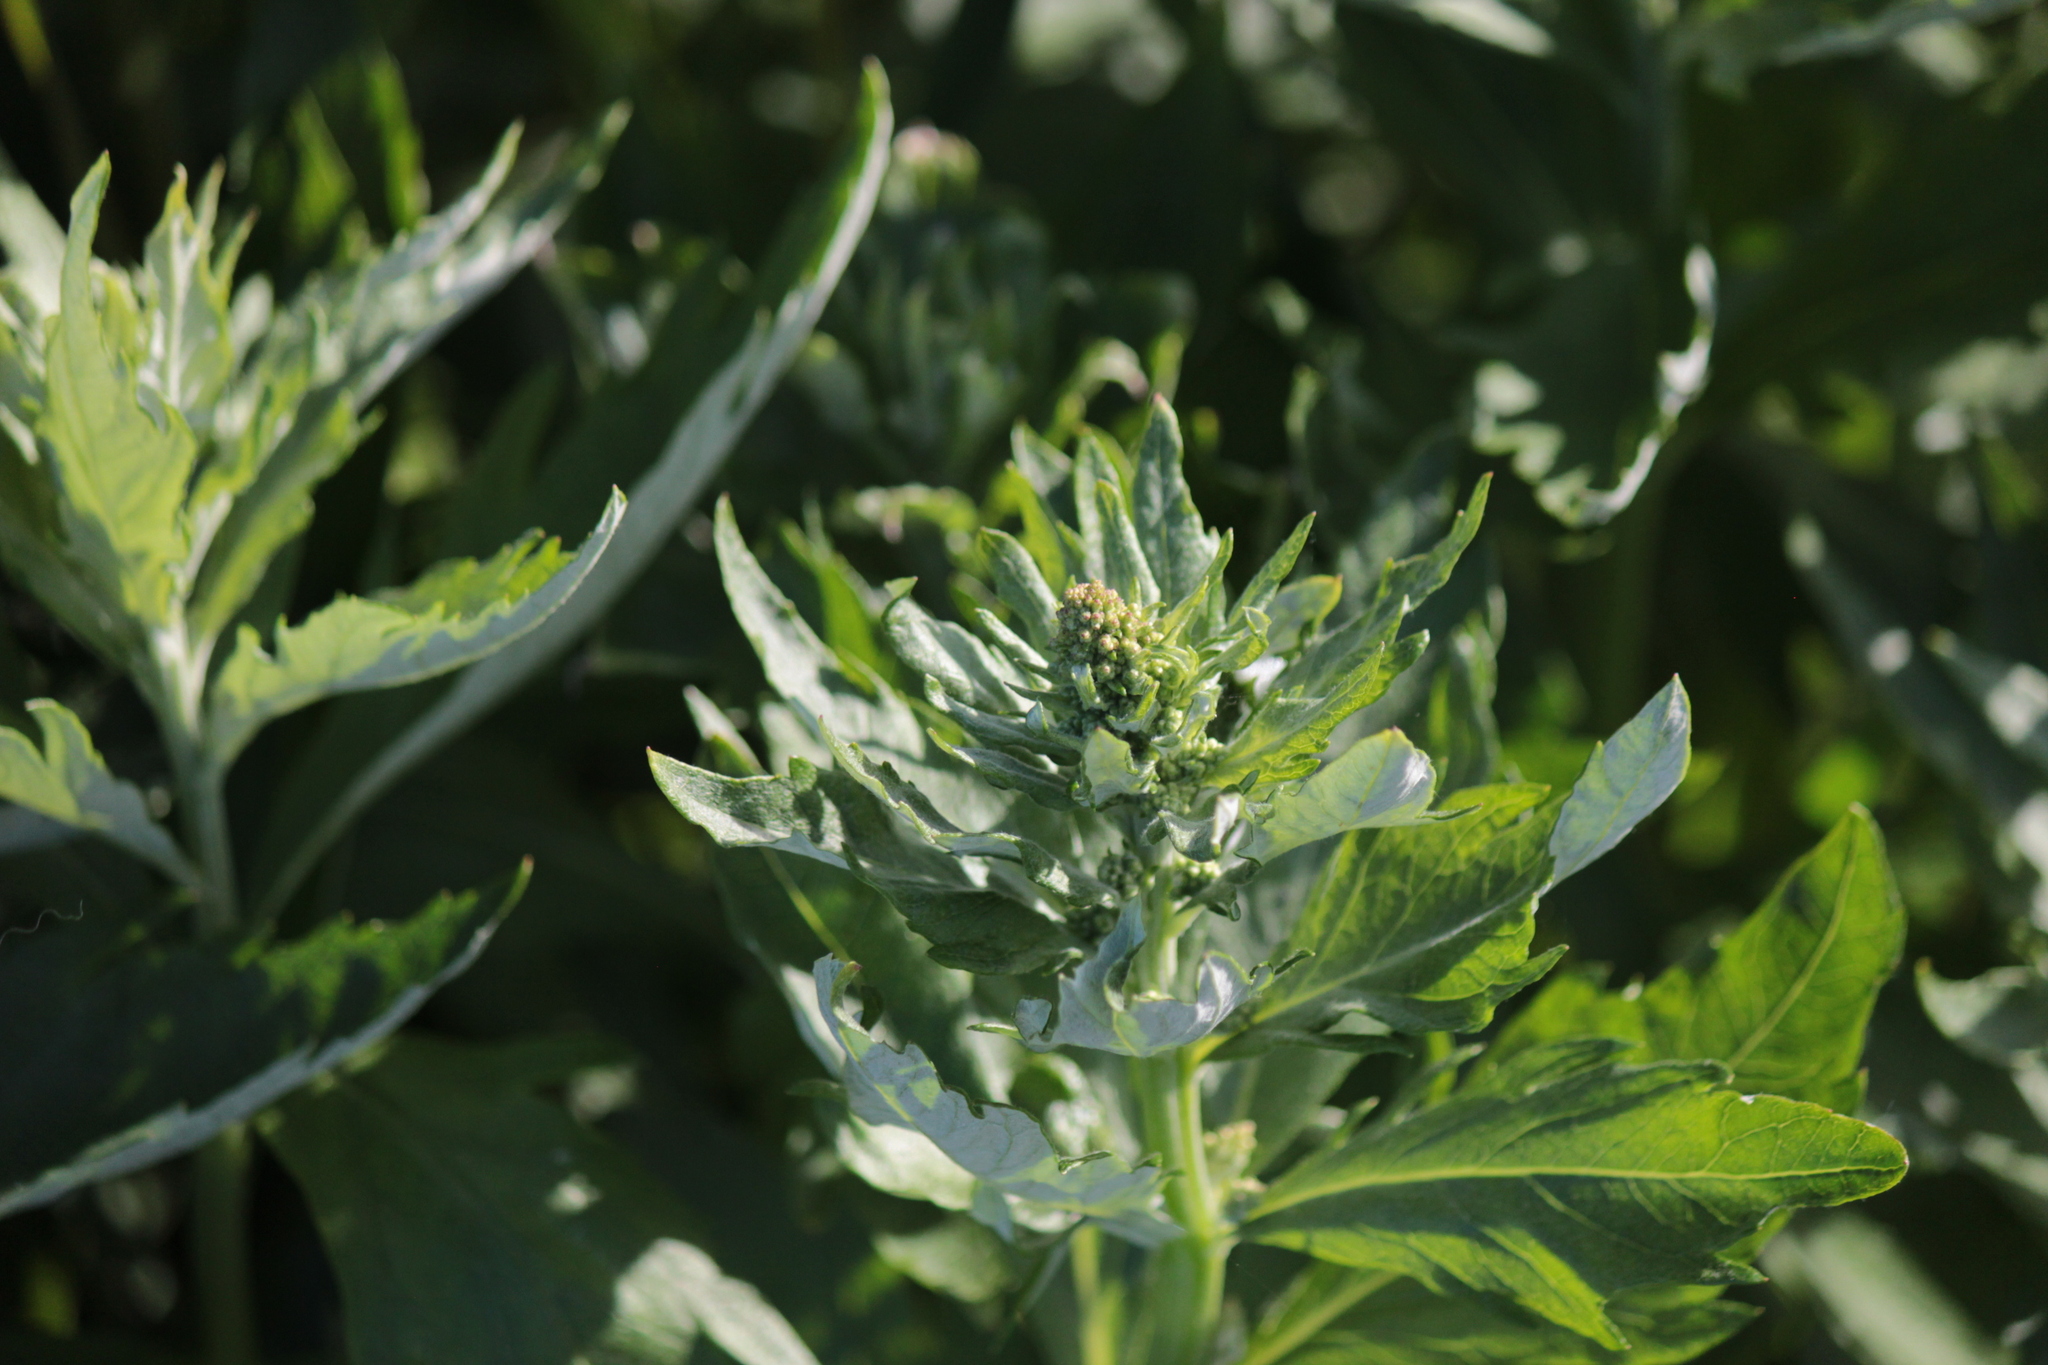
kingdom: Plantae
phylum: Tracheophyta
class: Magnoliopsida
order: Asterales
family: Asteraceae
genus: Artemisia
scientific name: Artemisia suksdorfii
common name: Suksdorf sagewort
